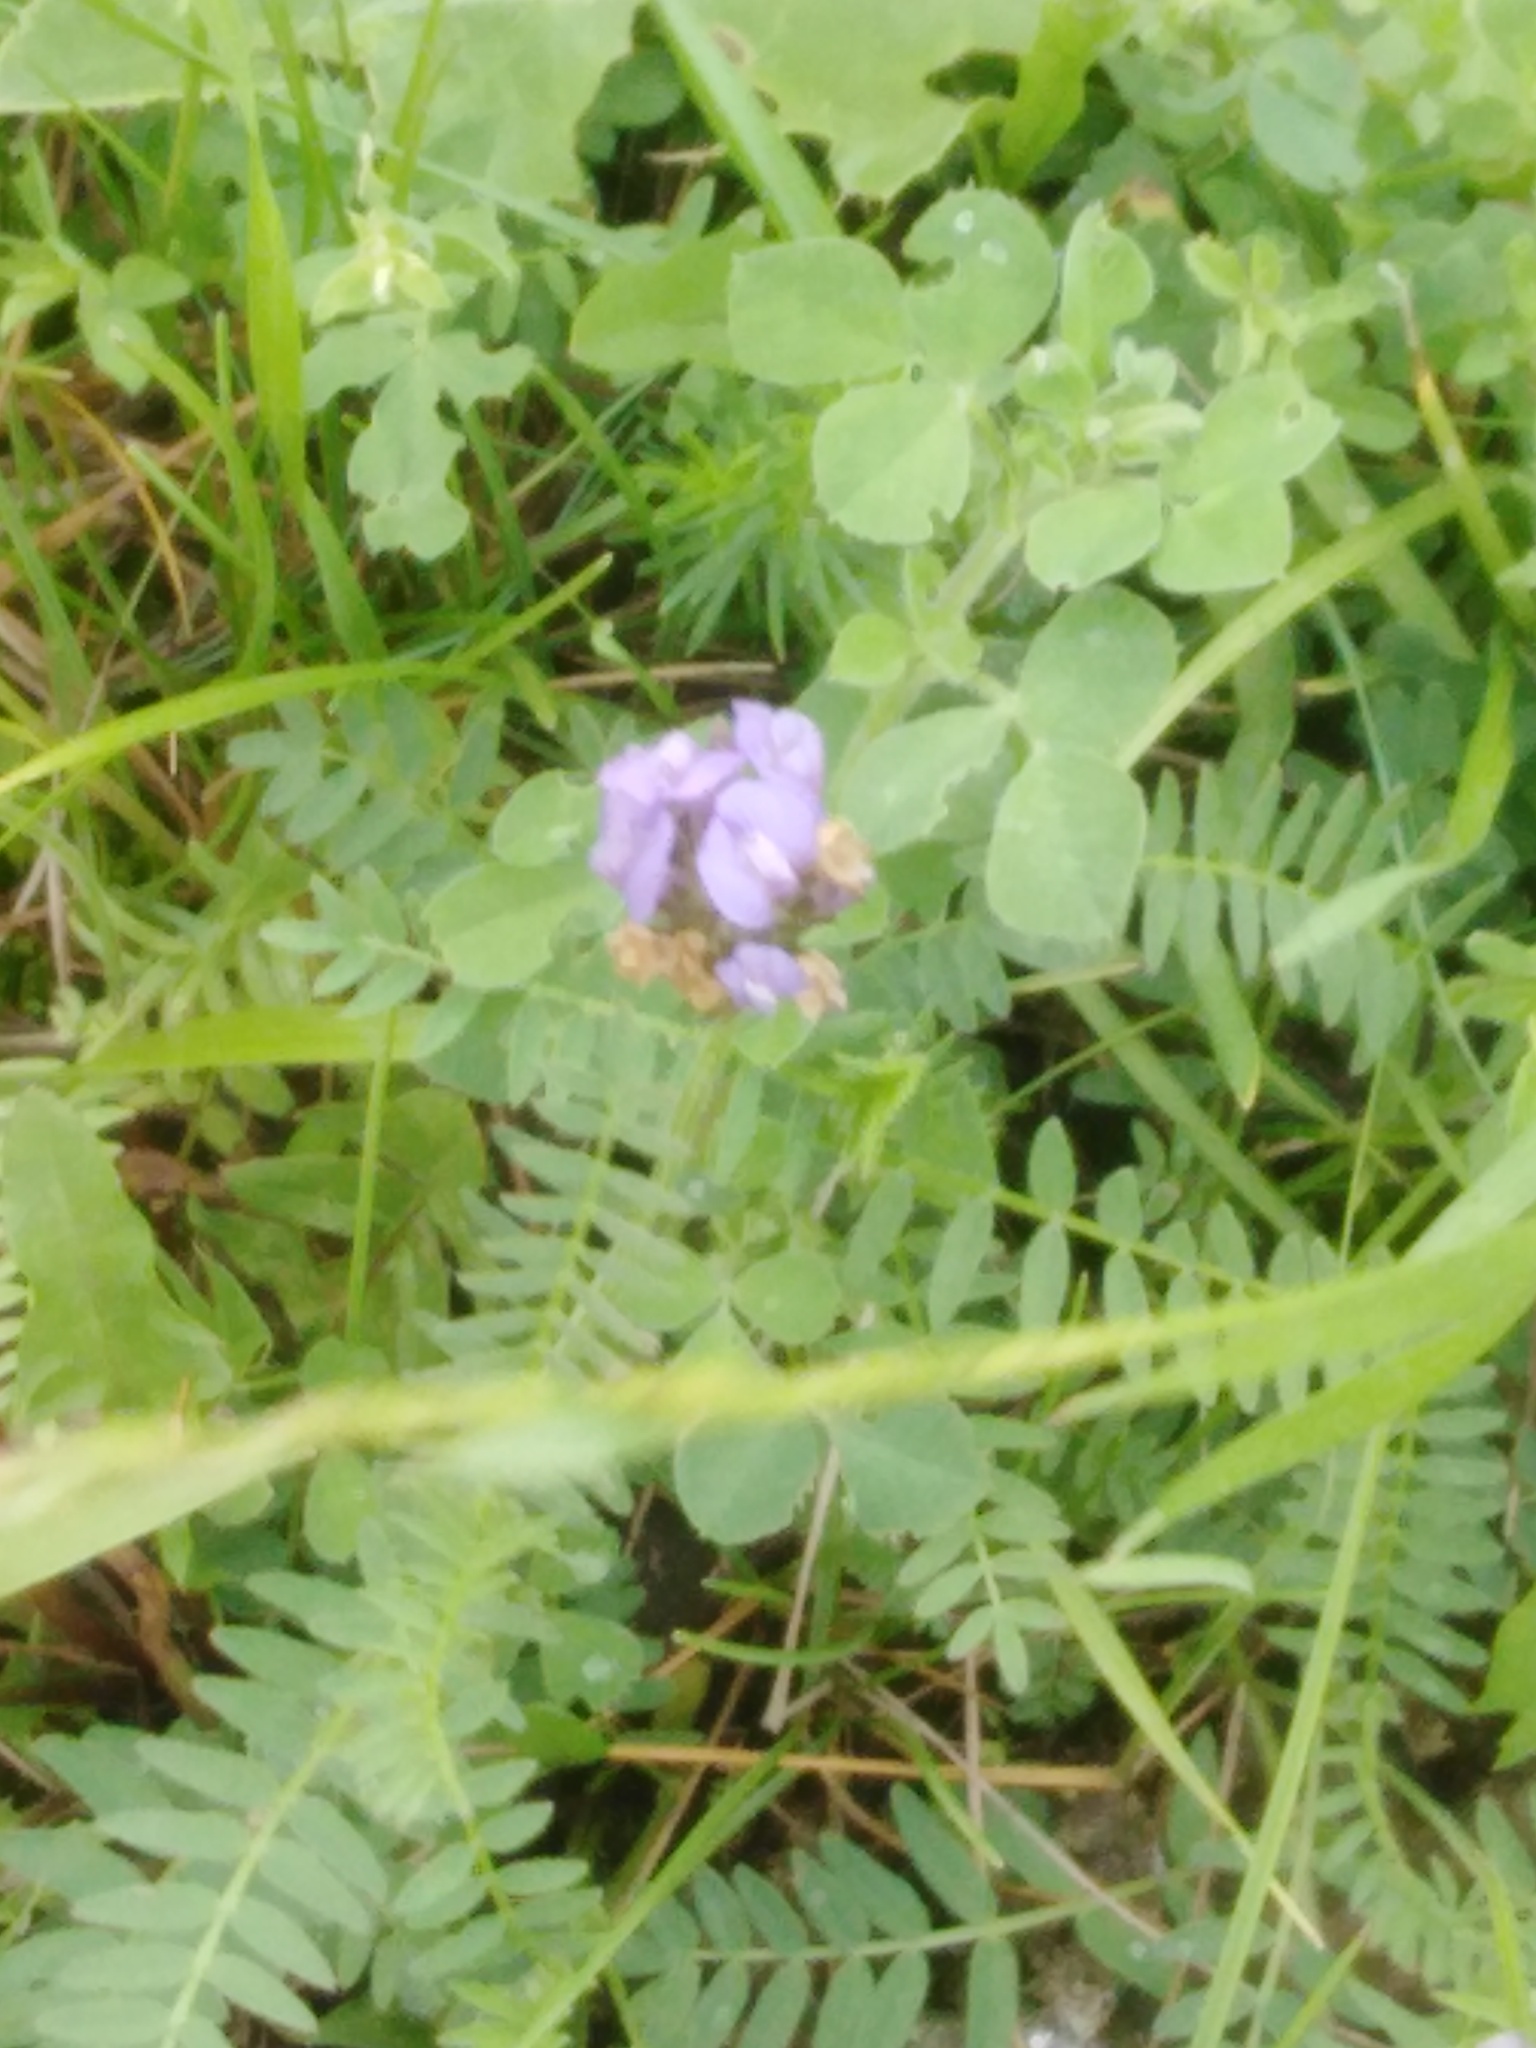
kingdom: Plantae
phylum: Tracheophyta
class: Magnoliopsida
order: Fabales
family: Fabaceae
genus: Astragalus
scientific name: Astragalus danicus
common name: Purple milk-vetch
